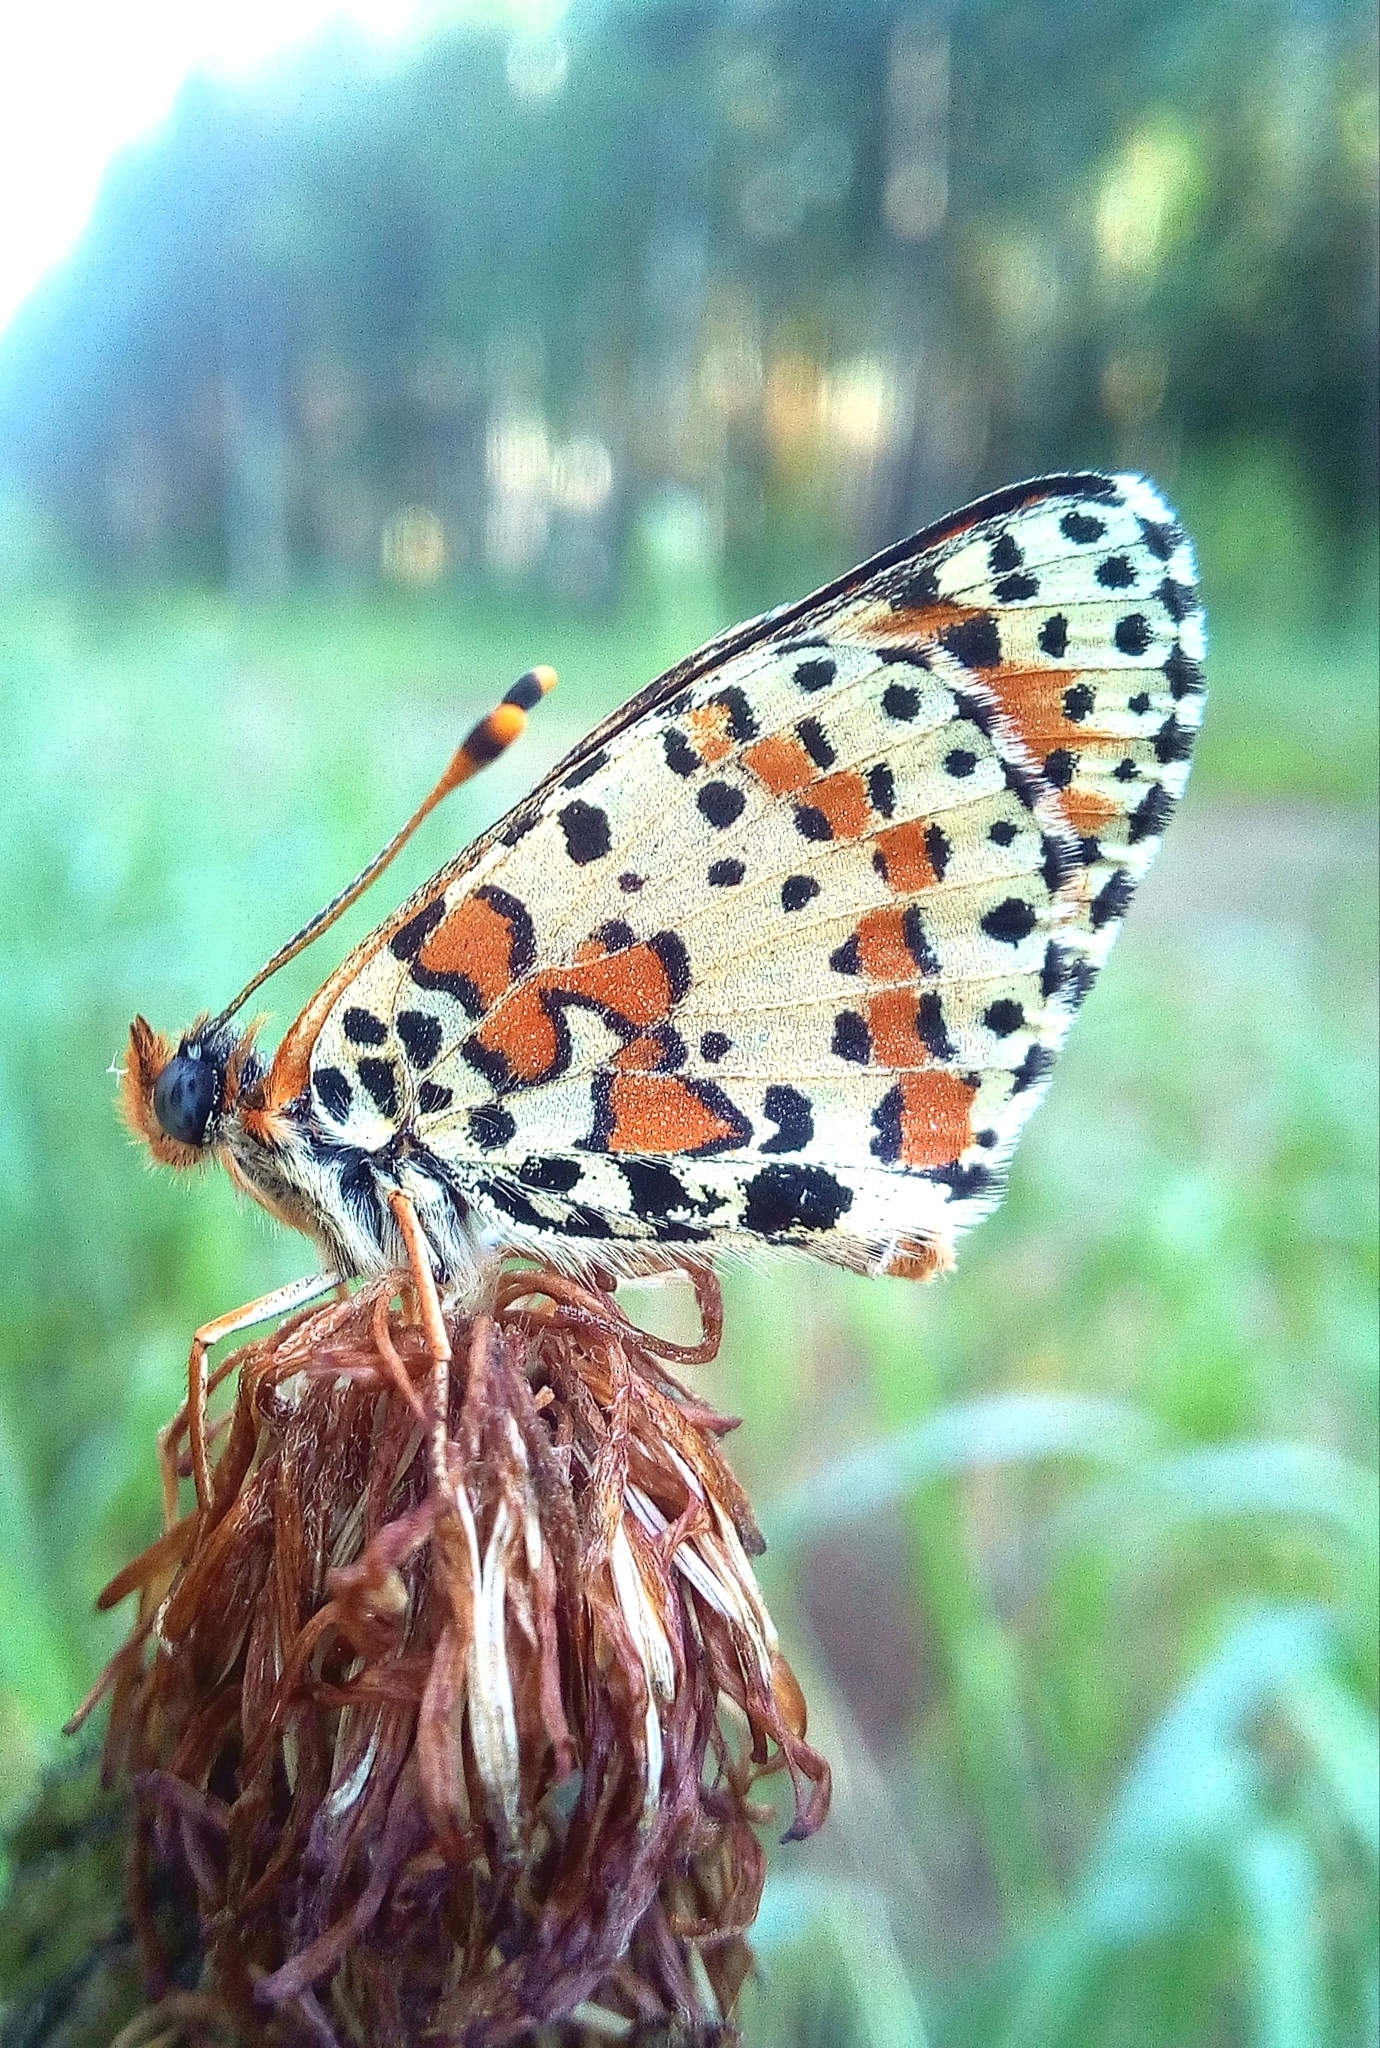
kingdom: Animalia
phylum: Arthropoda
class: Insecta
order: Lepidoptera
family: Nymphalidae
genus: Melitaea
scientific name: Melitaea didyma
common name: Spotted fritillary
